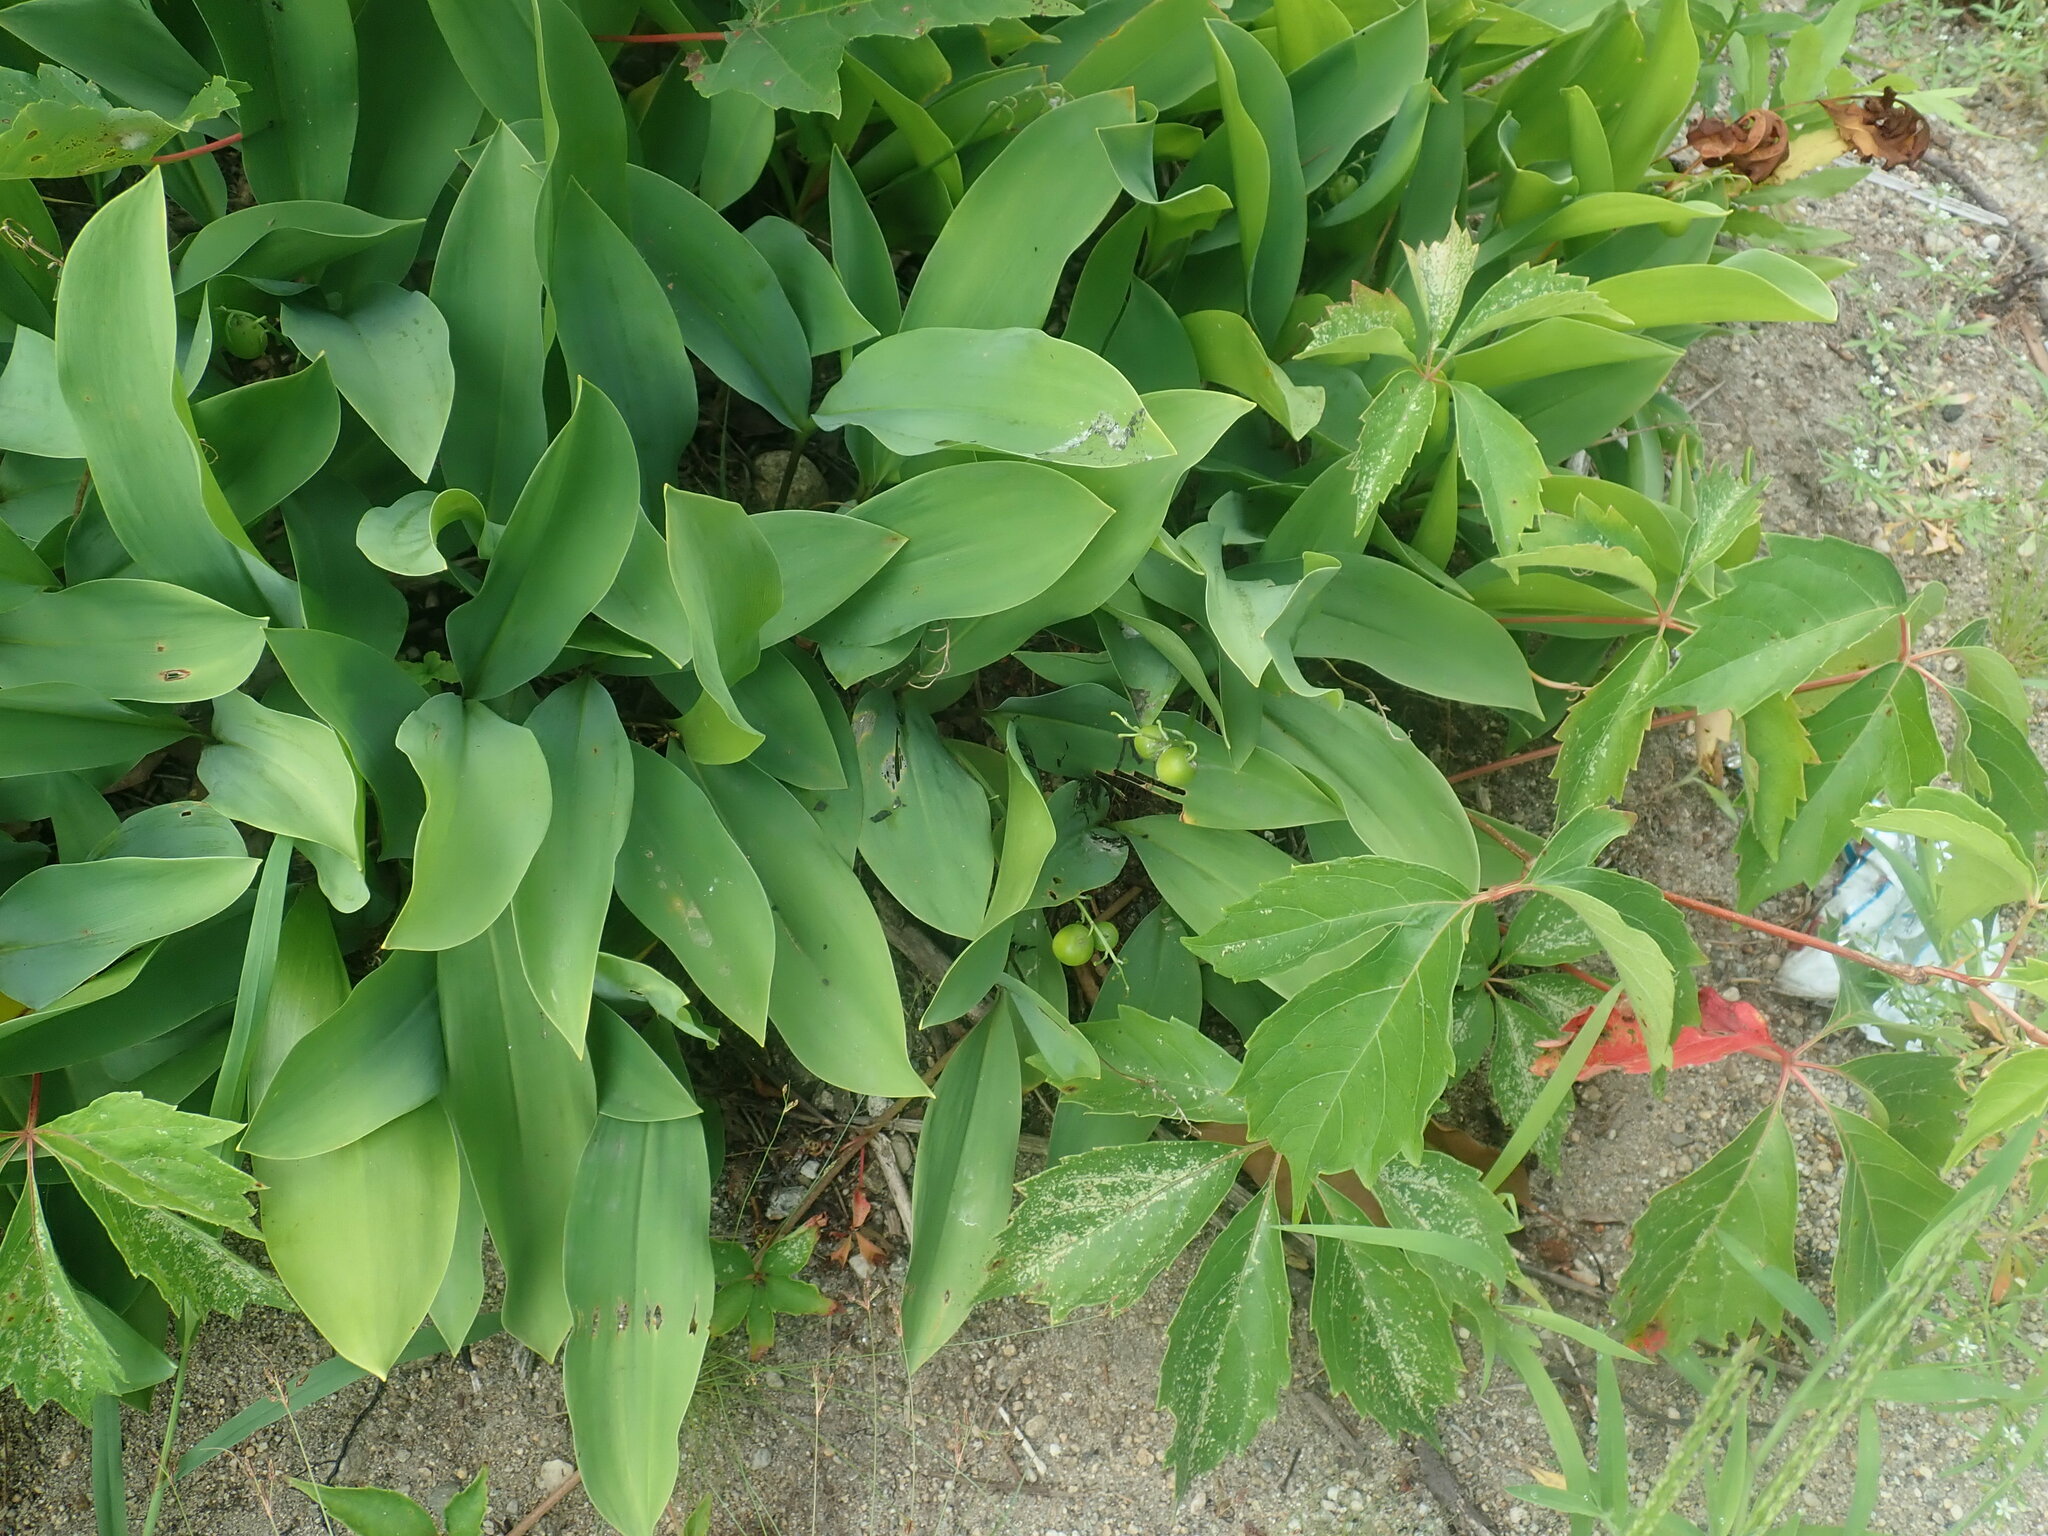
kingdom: Plantae
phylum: Tracheophyta
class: Liliopsida
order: Asparagales
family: Asparagaceae
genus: Convallaria
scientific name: Convallaria majalis
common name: Lily-of-the-valley
